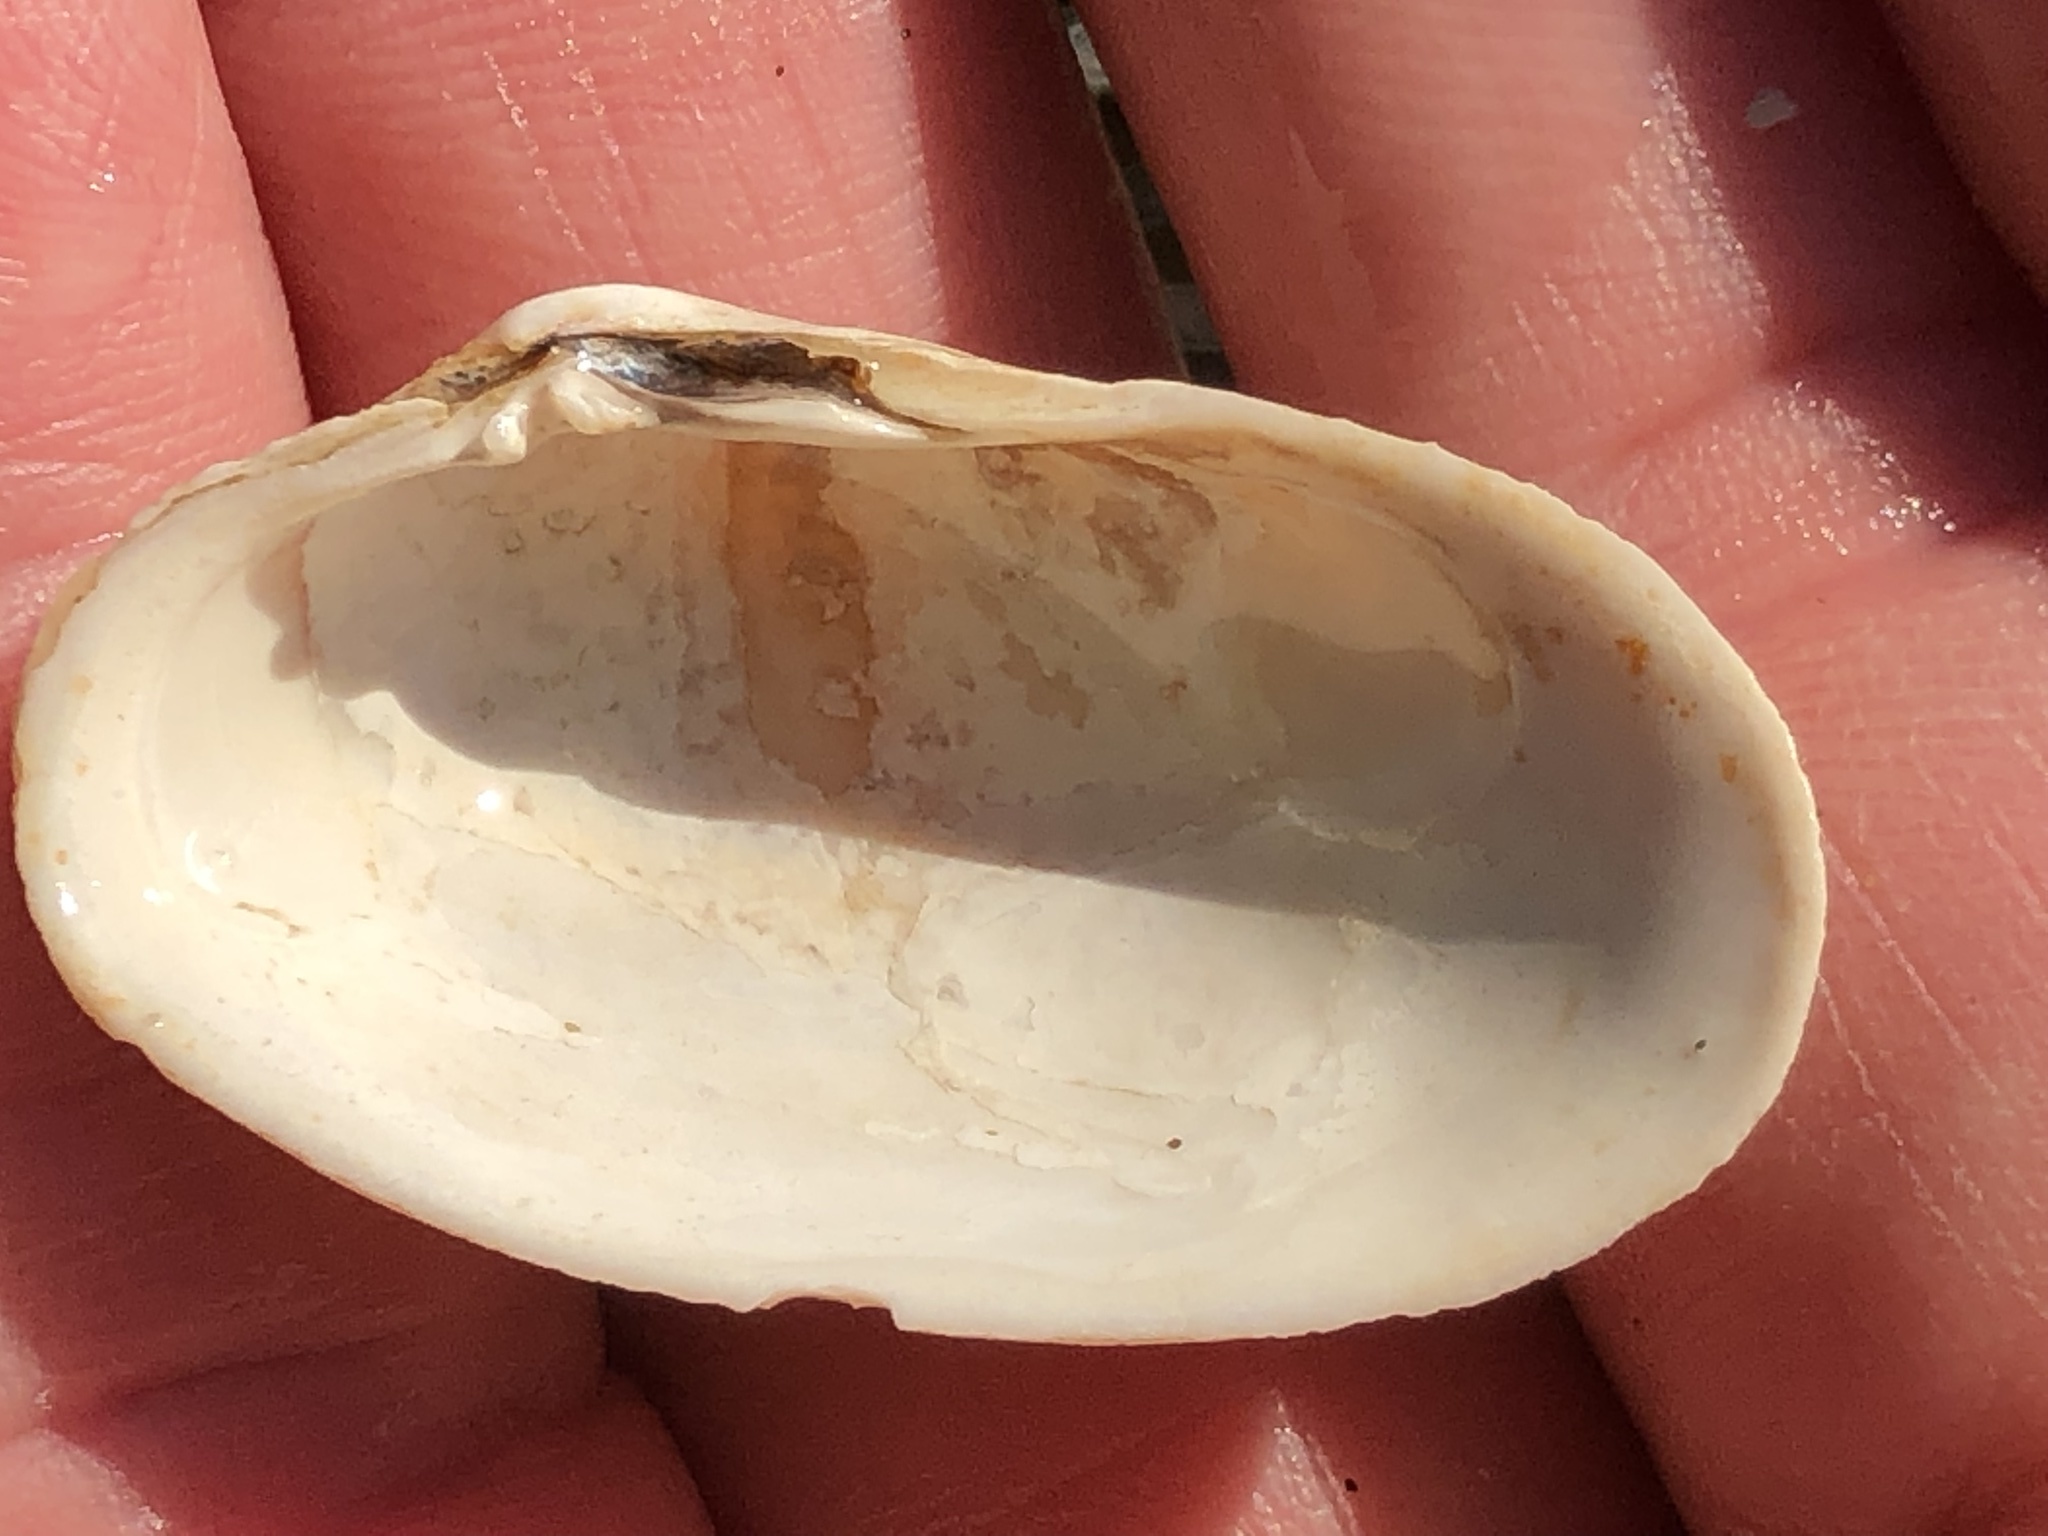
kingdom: Animalia
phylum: Mollusca
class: Bivalvia
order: Venerida
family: Veneridae
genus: Petricola
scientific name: Petricola carditoides
